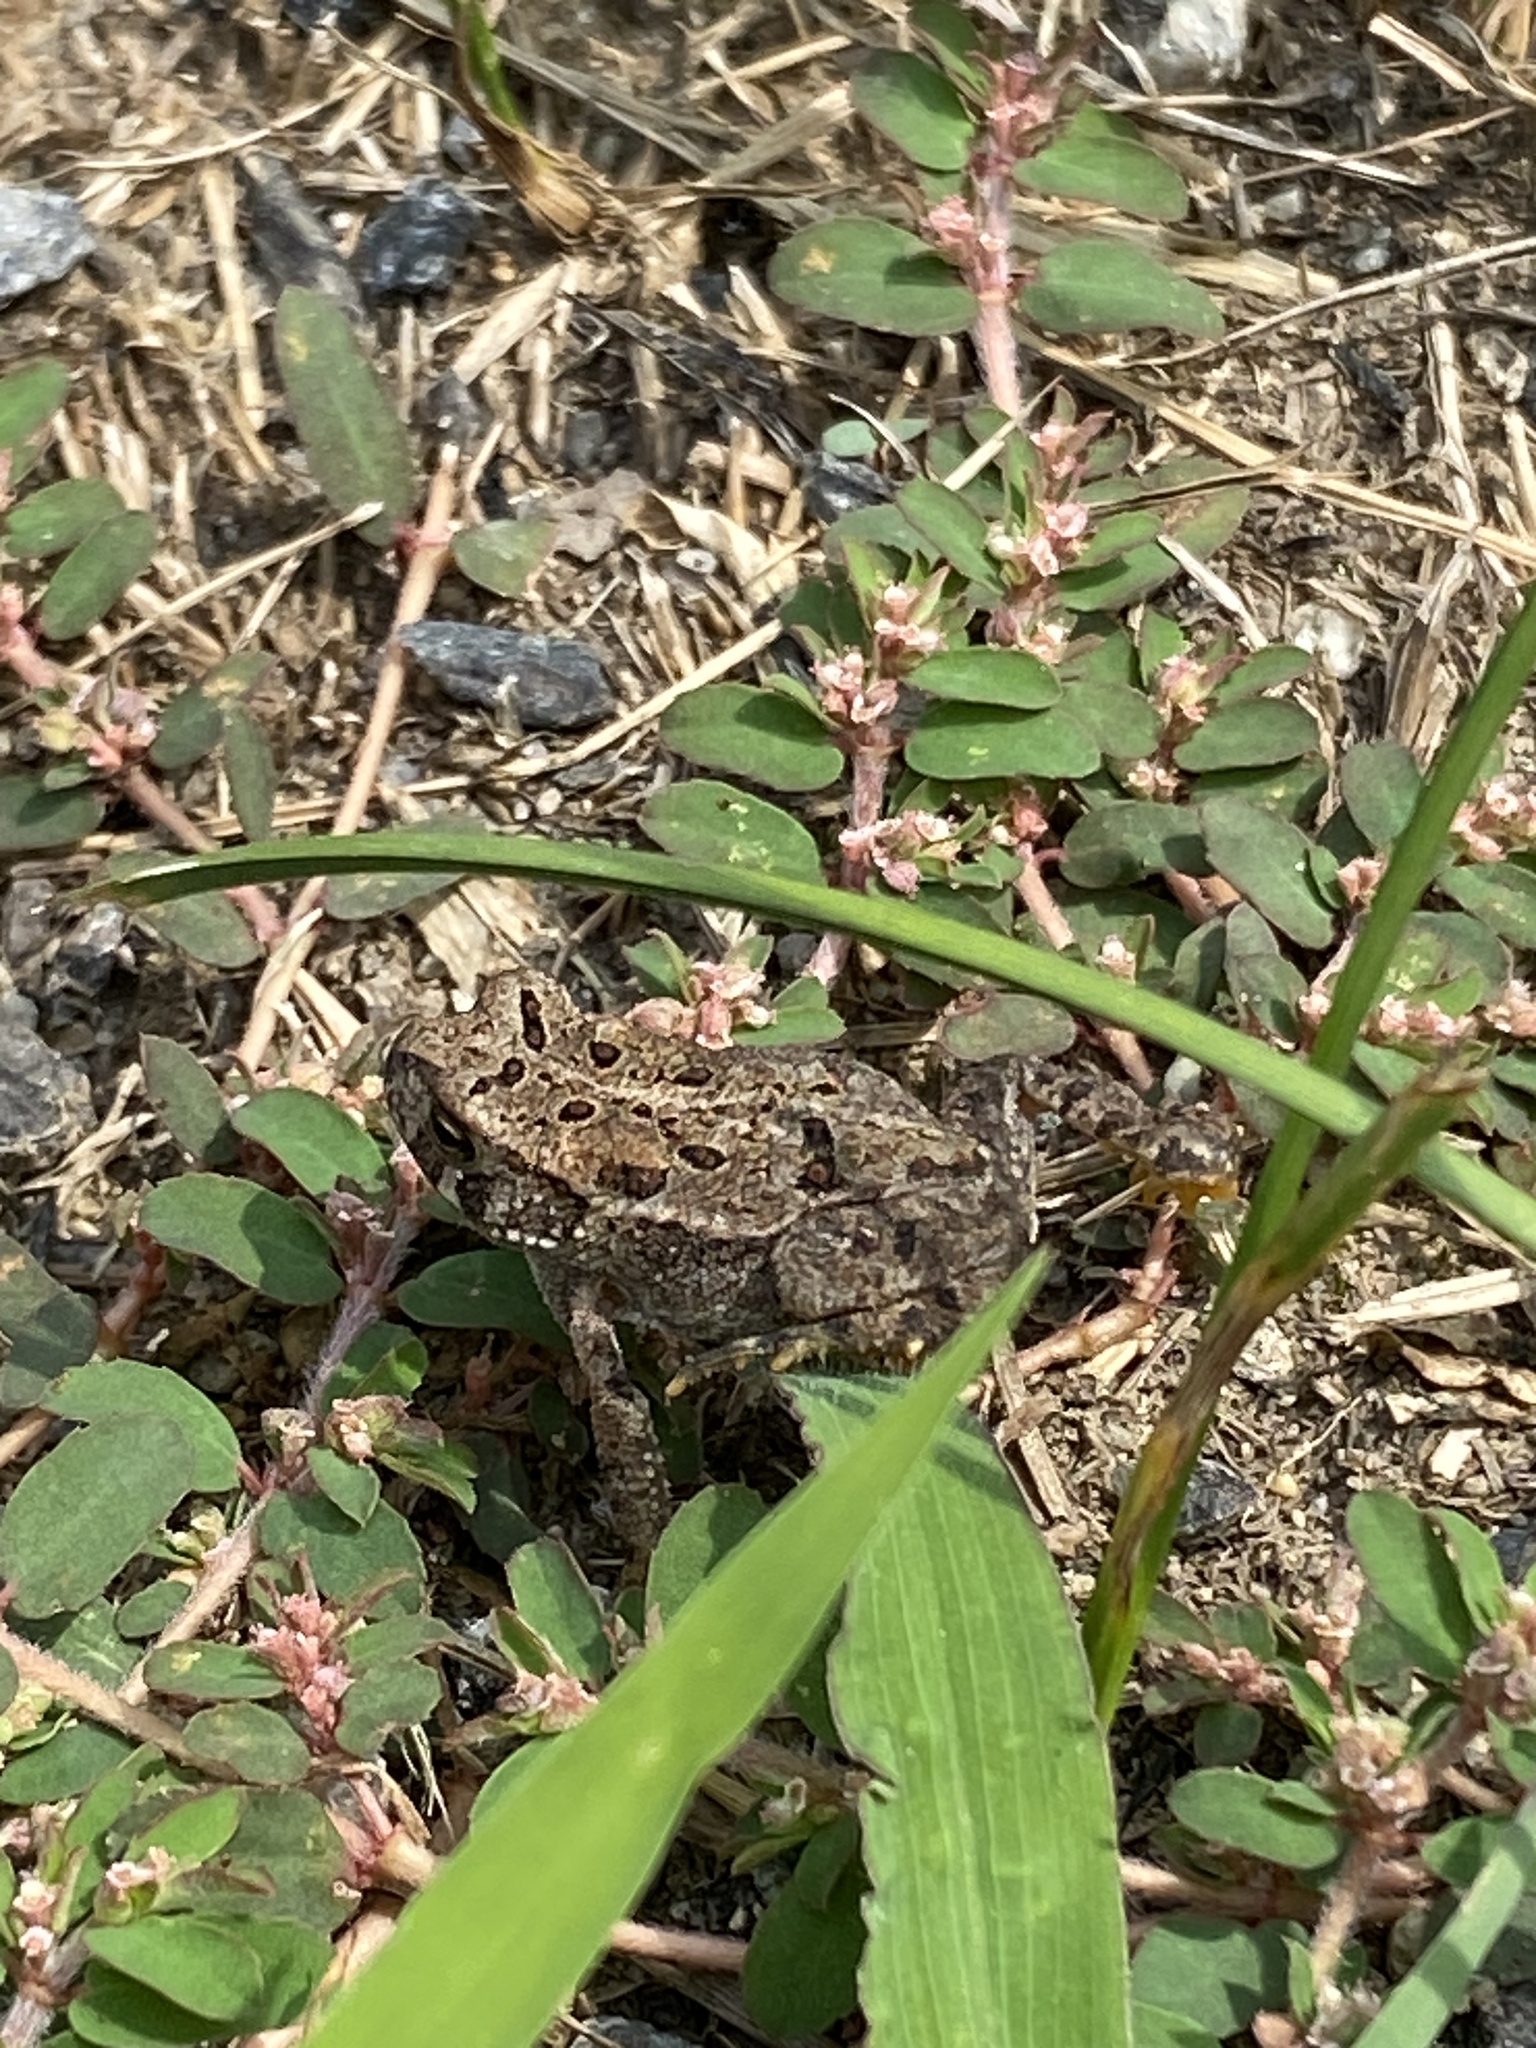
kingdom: Animalia
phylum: Chordata
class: Amphibia
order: Anura
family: Bufonidae
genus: Anaxyrus
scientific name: Anaxyrus americanus
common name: American toad
